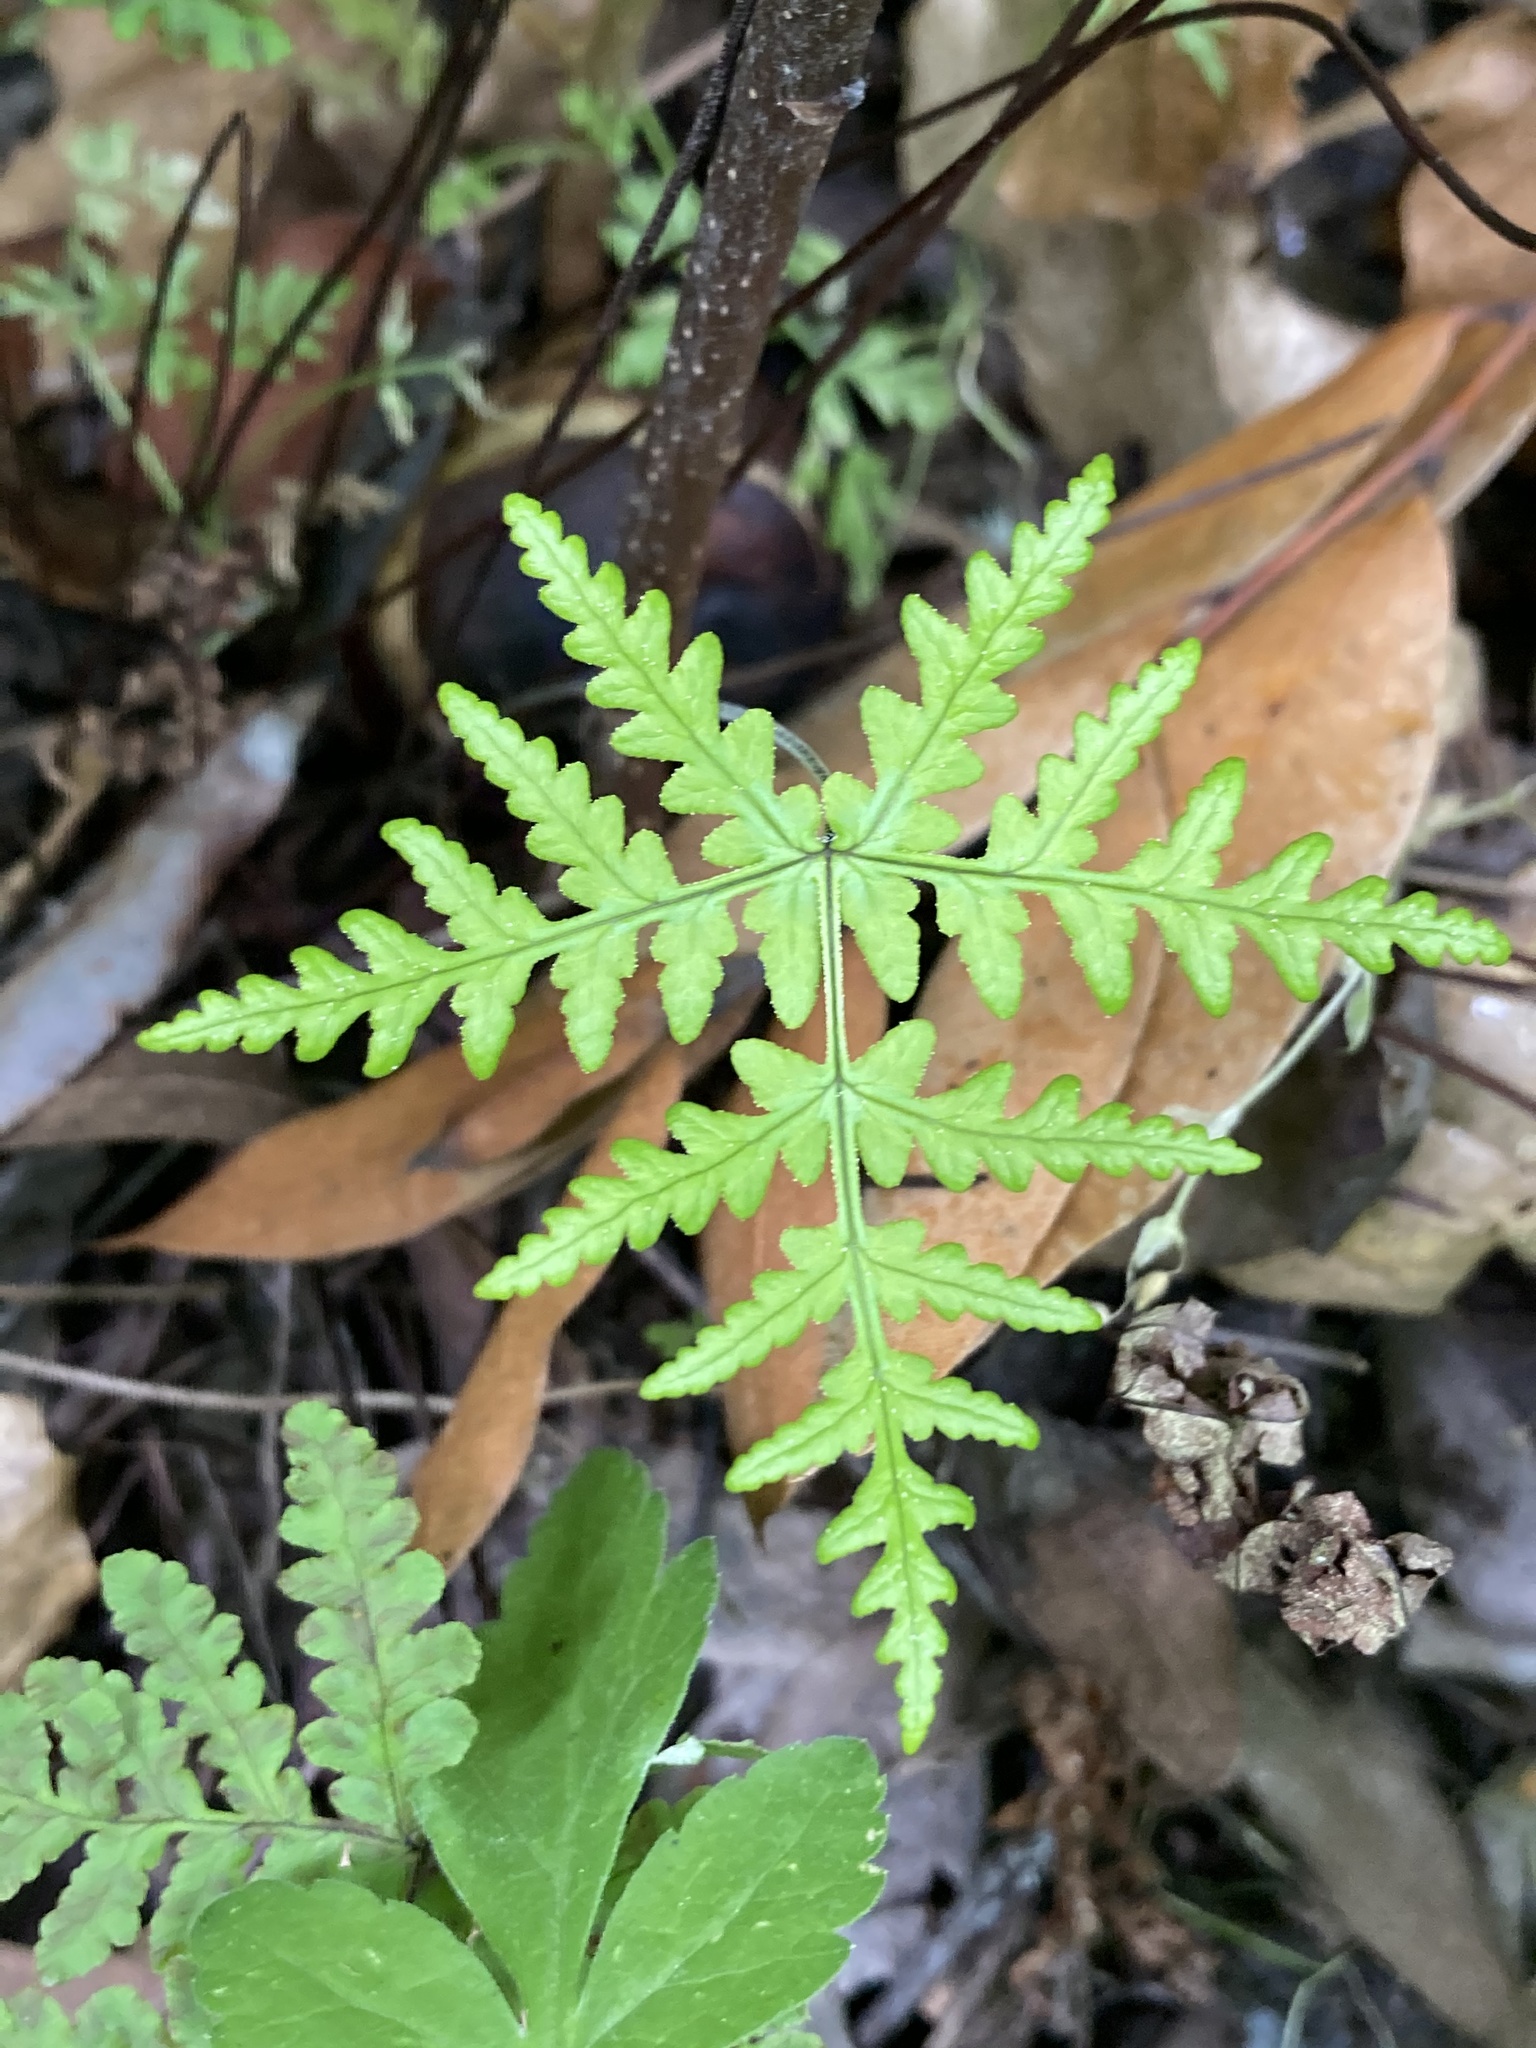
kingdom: Plantae
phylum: Tracheophyta
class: Polypodiopsida
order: Polypodiales
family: Pteridaceae
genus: Pentagramma
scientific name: Pentagramma triangularis
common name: Gold fern
